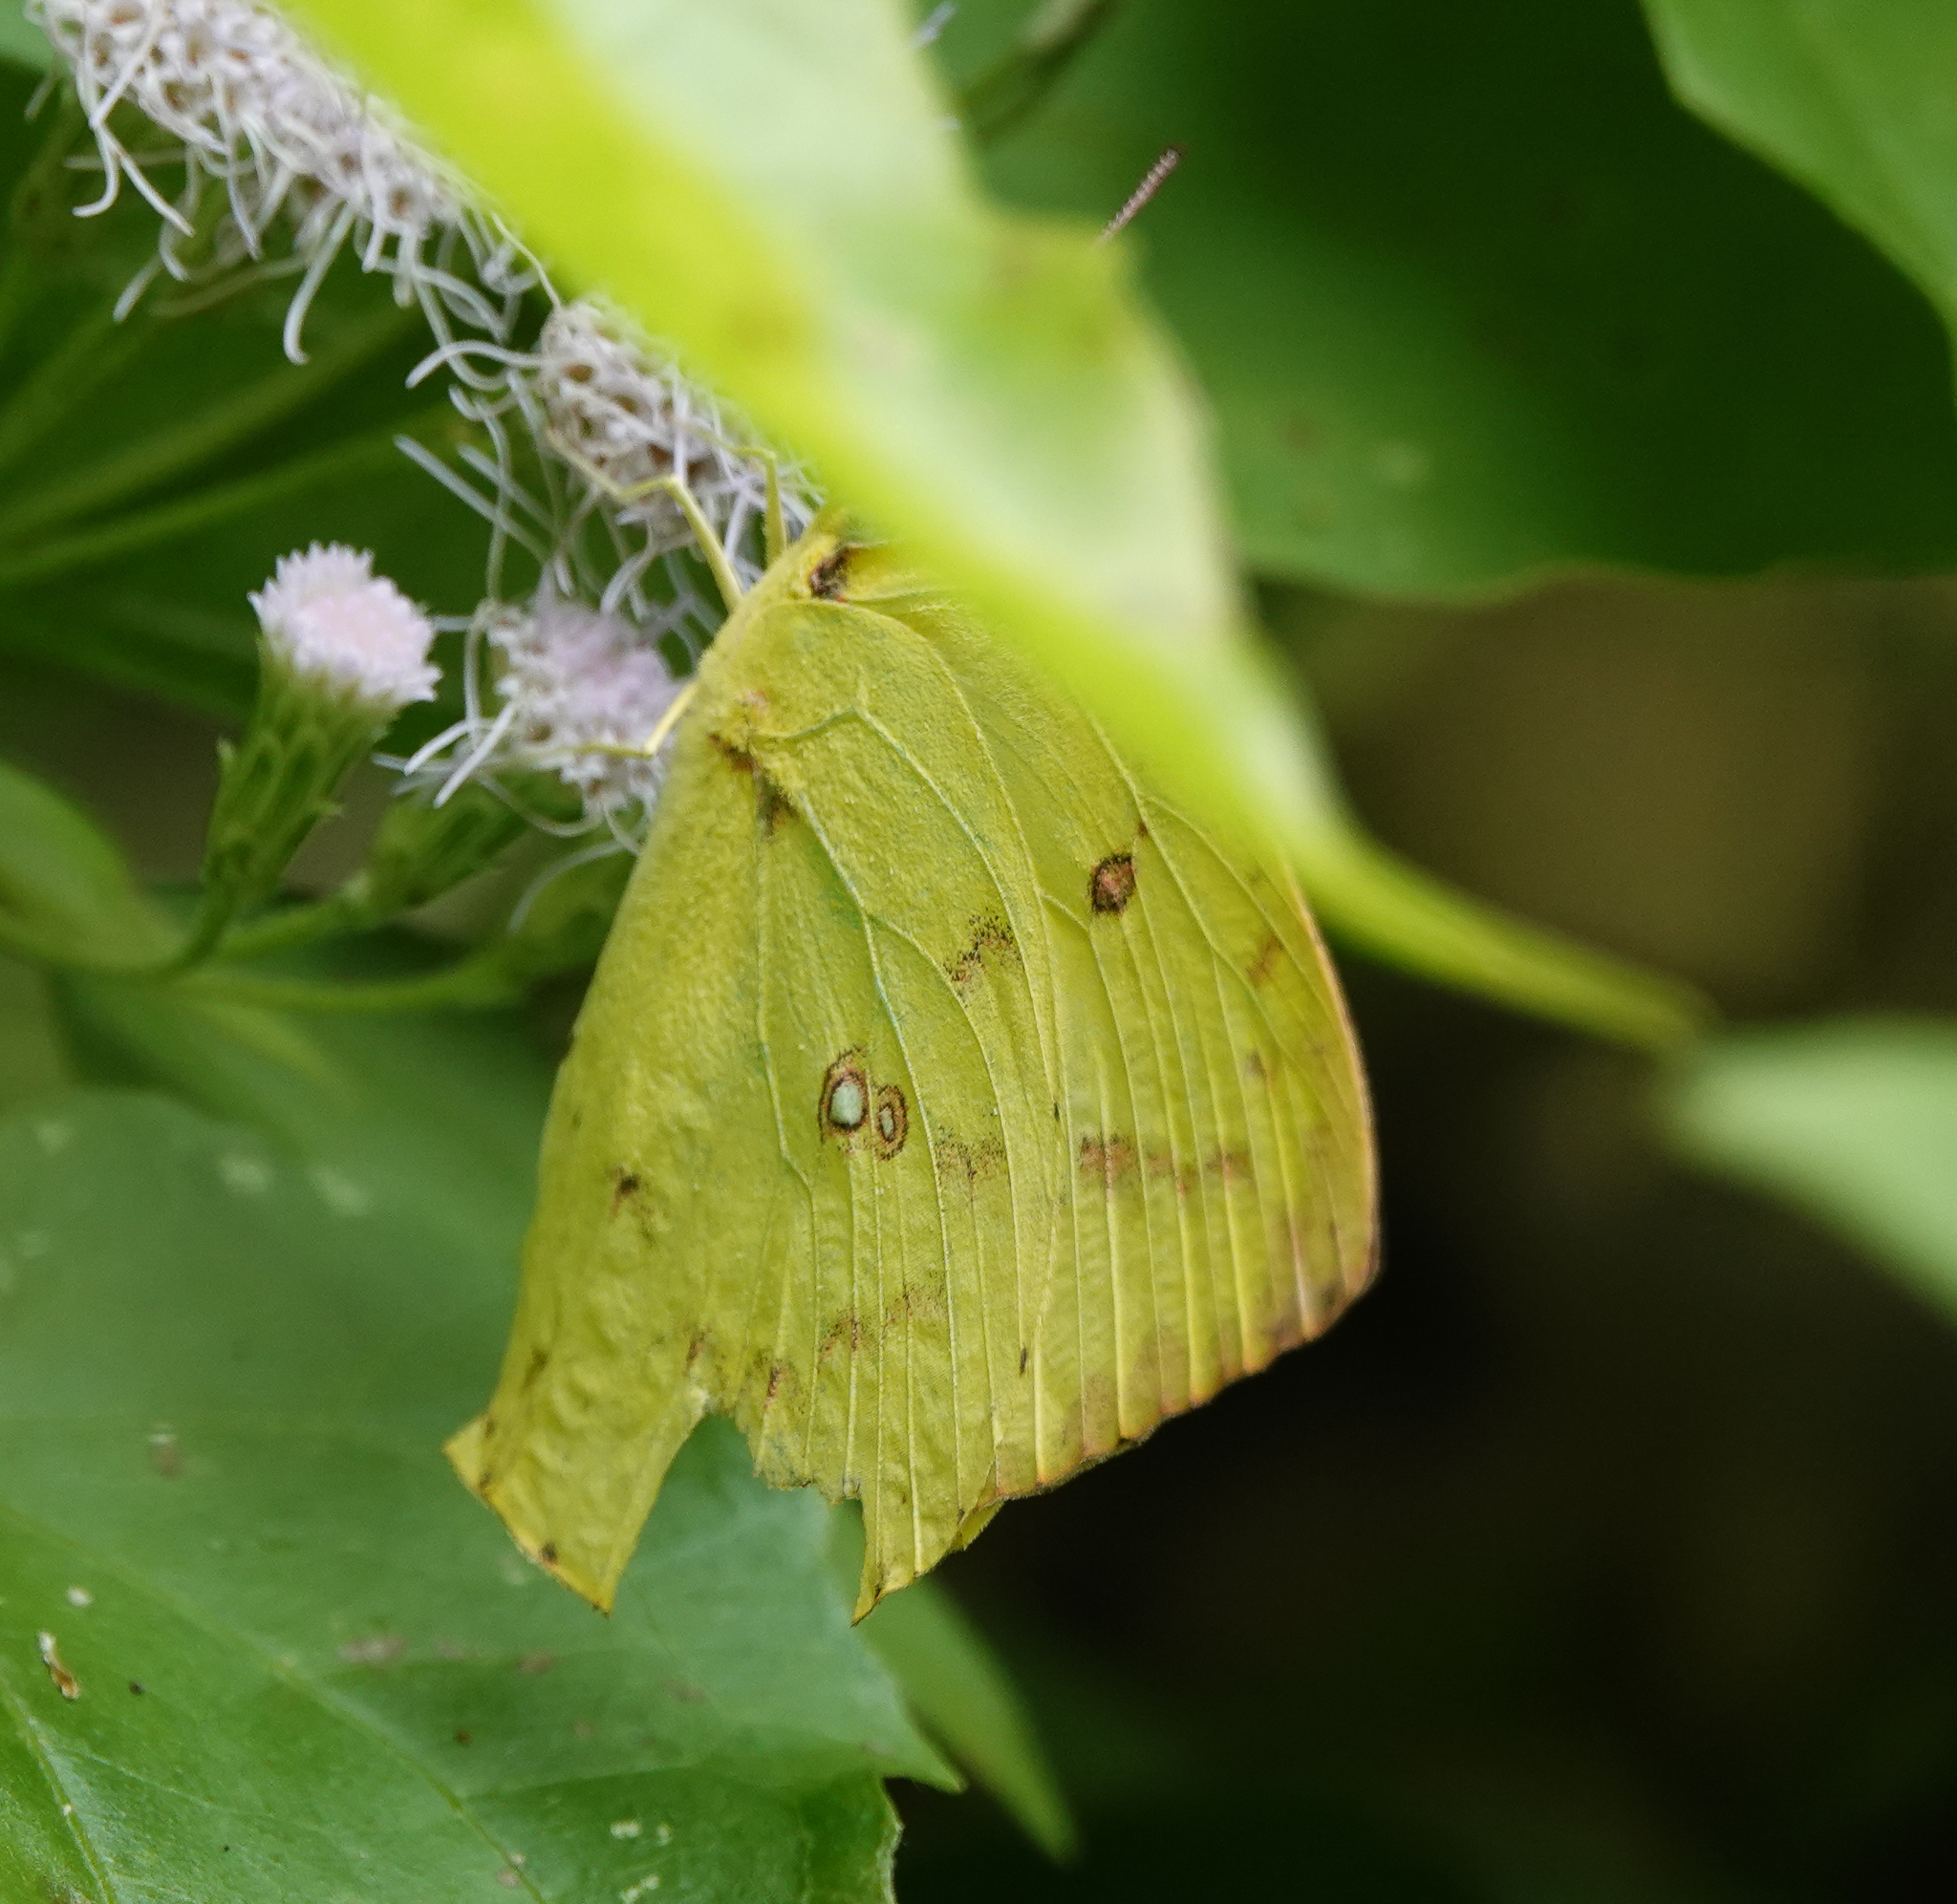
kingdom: Animalia
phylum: Arthropoda
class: Insecta
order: Lepidoptera
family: Pieridae
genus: Catopsilia
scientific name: Catopsilia pomona
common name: Common emigrant
